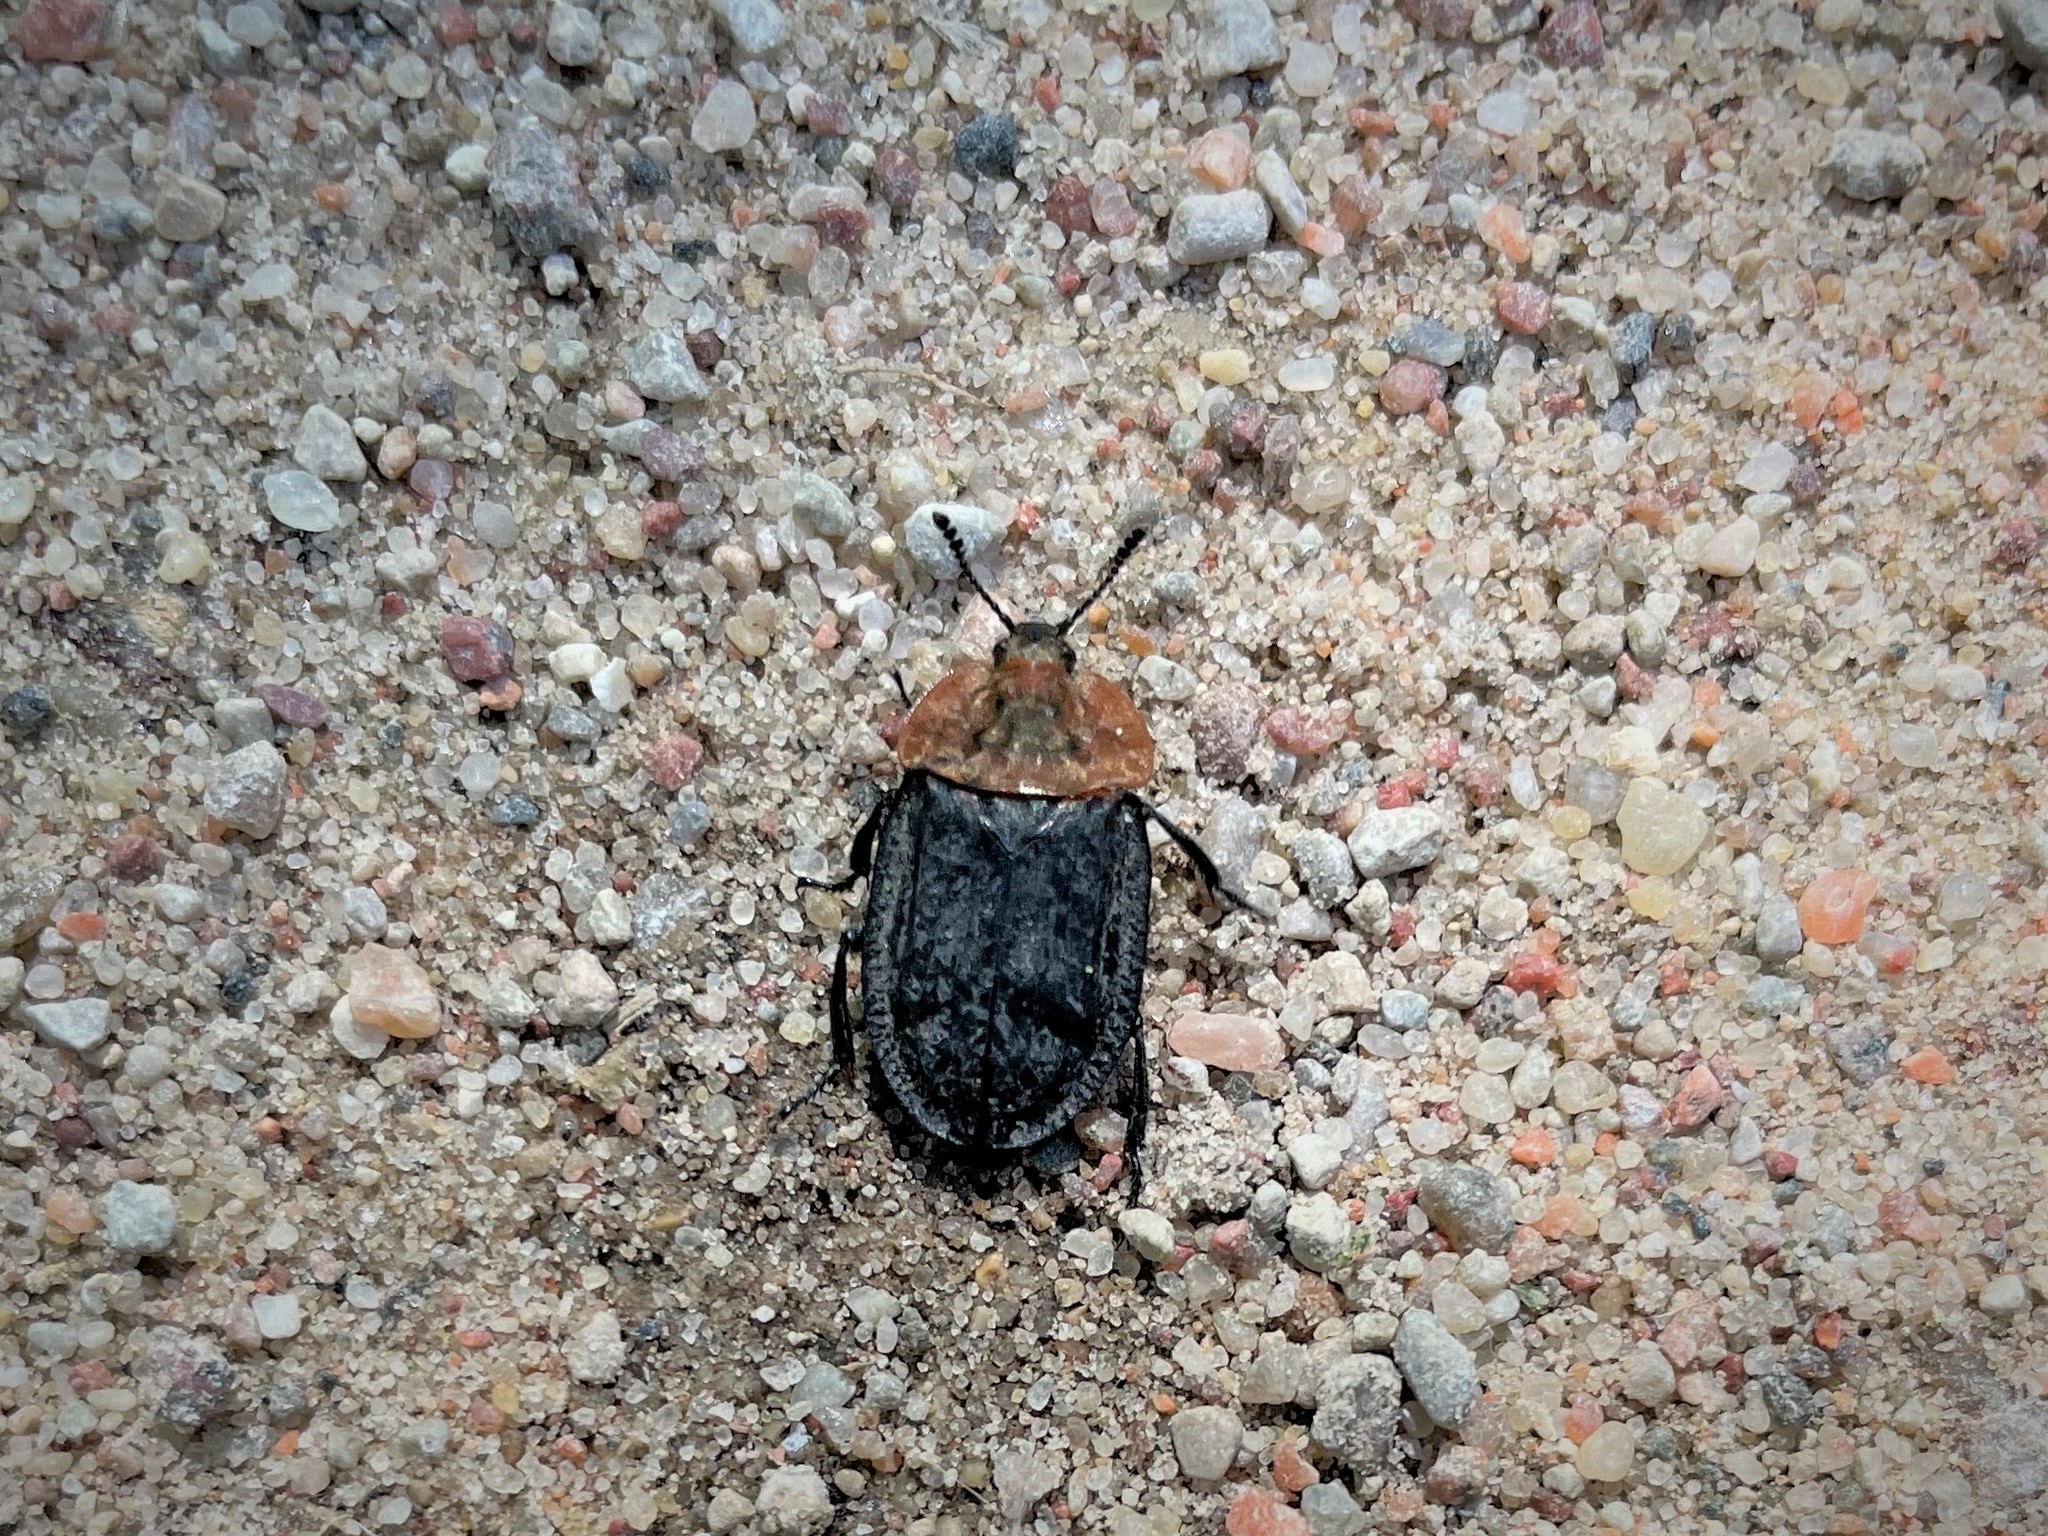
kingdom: Animalia
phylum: Arthropoda
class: Insecta
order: Coleoptera
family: Staphylinidae
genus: Oiceoptoma
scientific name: Oiceoptoma thoracicum
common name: Red-breasted carrion beetle
